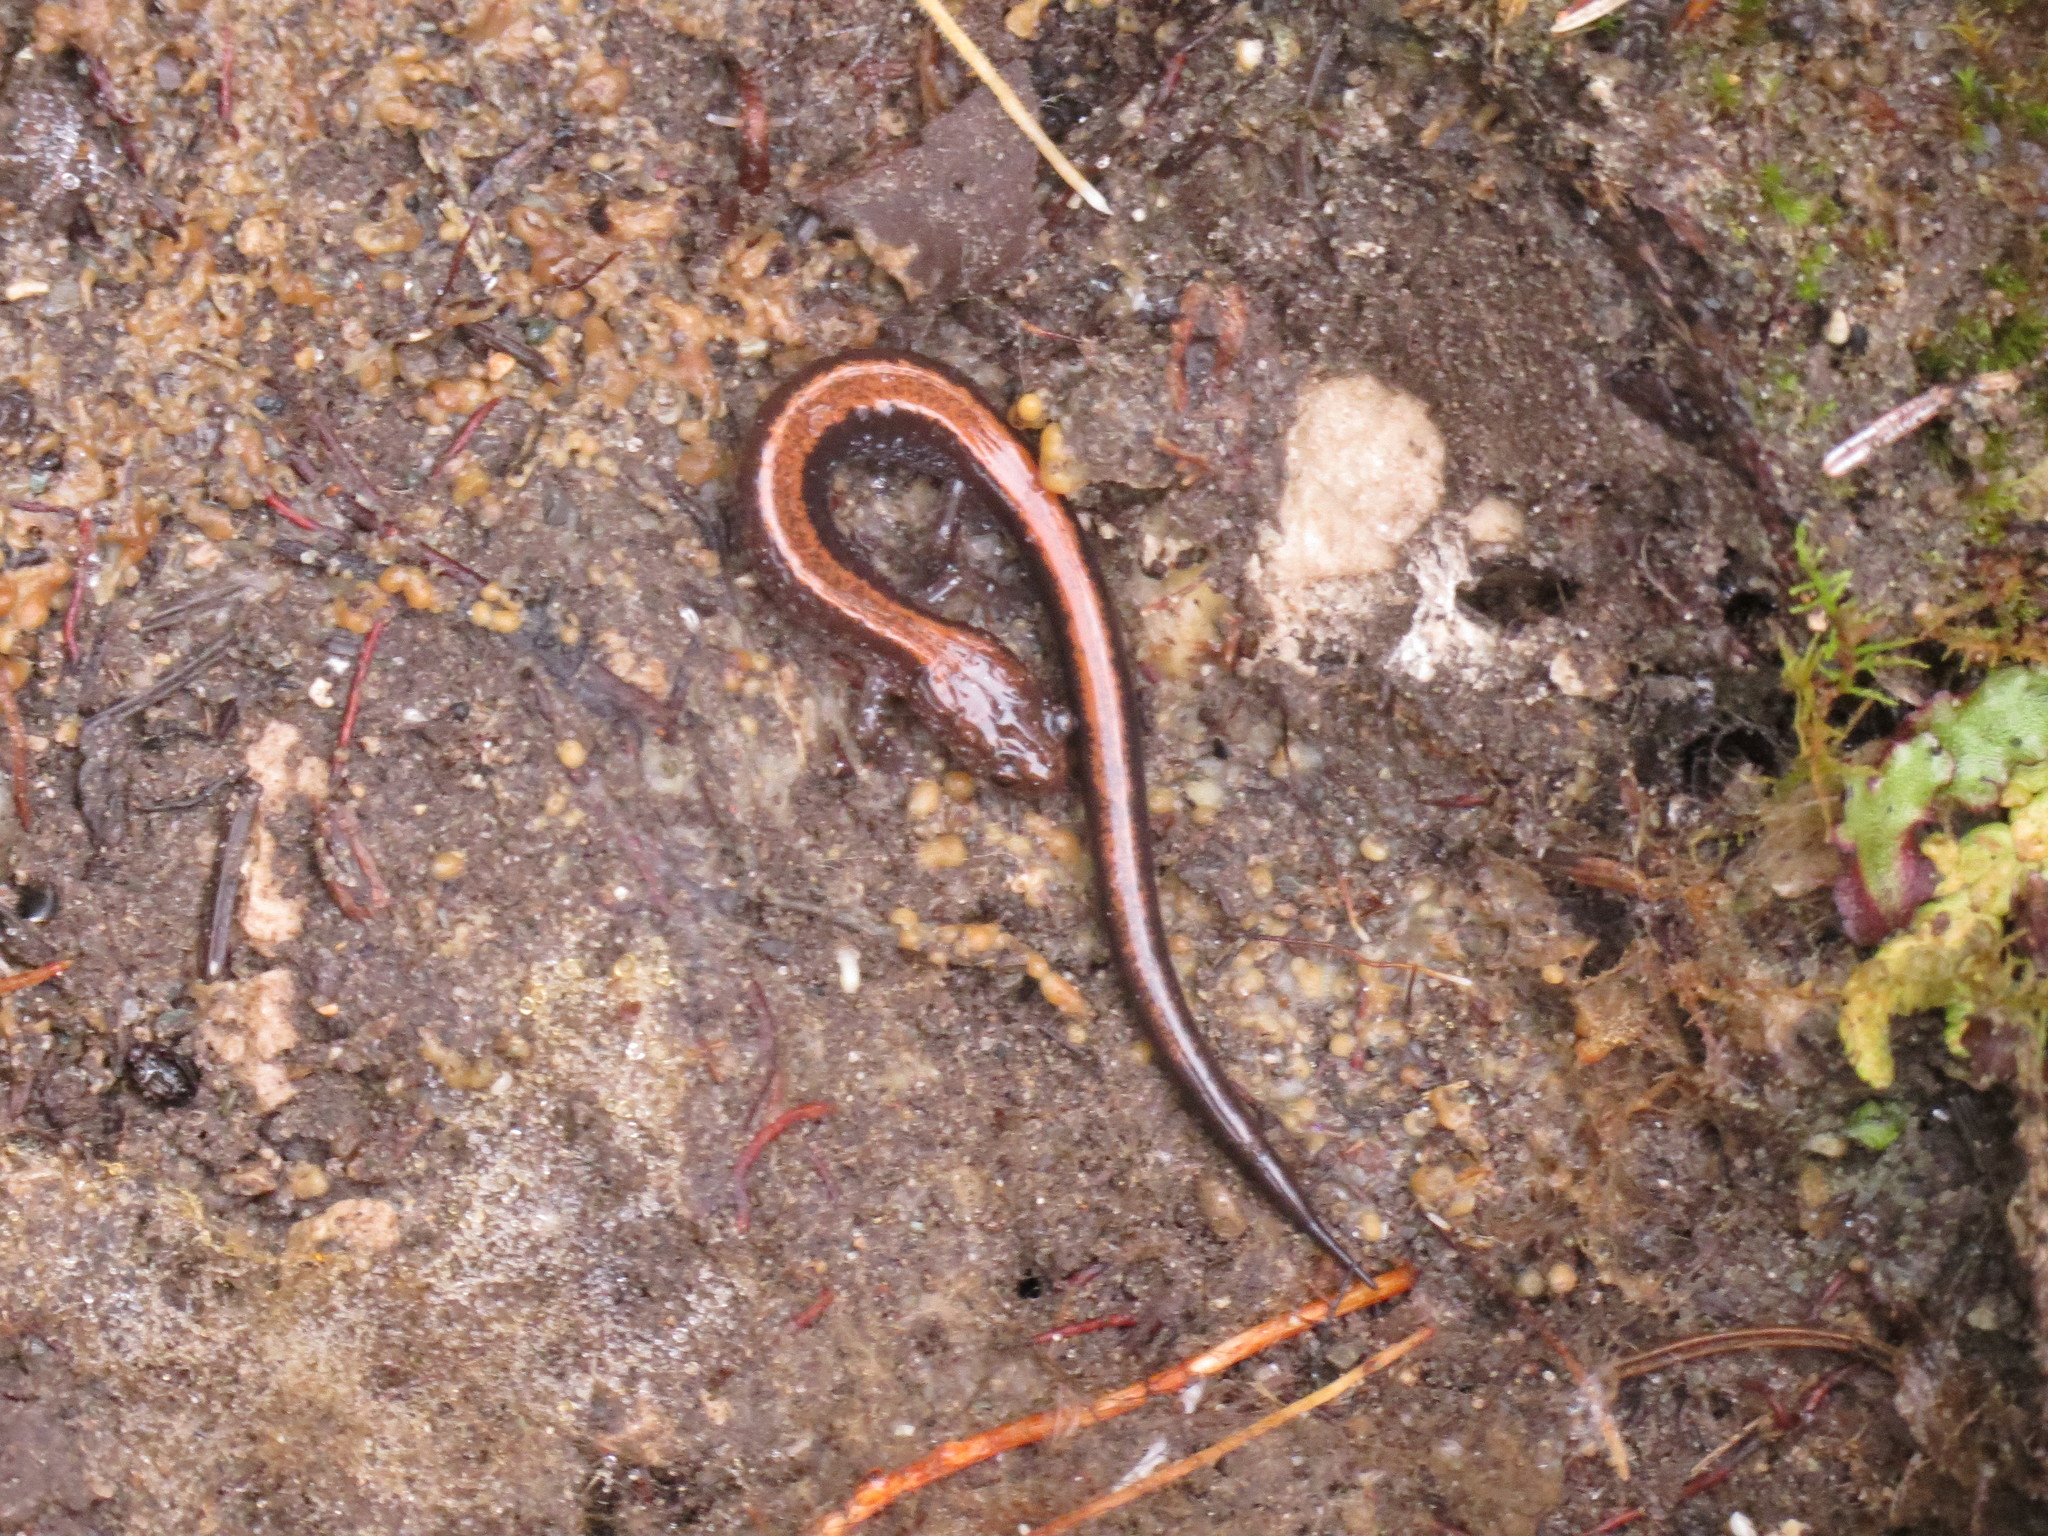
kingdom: Animalia
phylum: Chordata
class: Amphibia
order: Caudata
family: Plethodontidae
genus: Plethodon
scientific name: Plethodon cinereus
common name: Redback salamander
